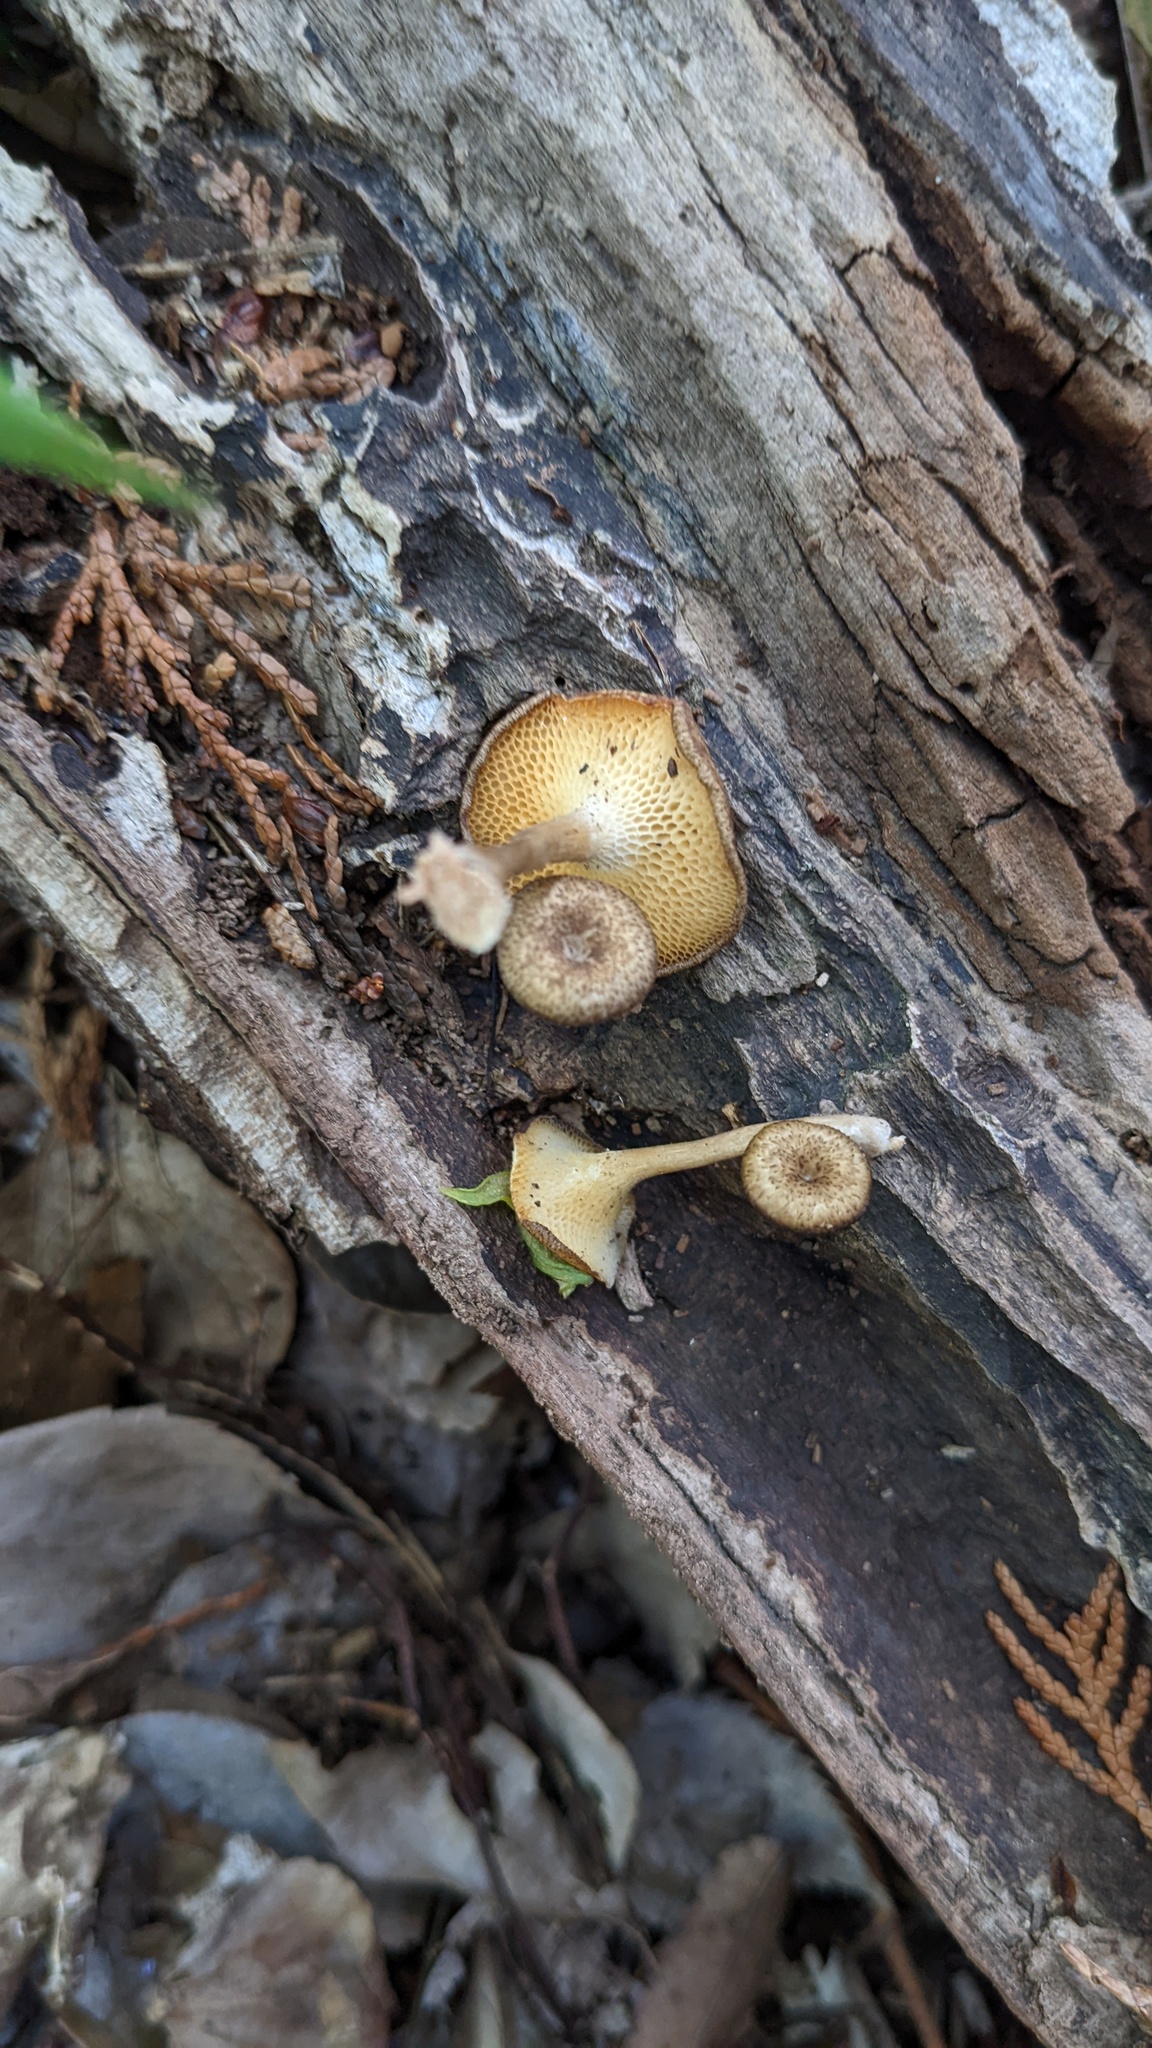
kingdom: Fungi
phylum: Basidiomycota
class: Agaricomycetes
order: Polyporales
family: Polyporaceae
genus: Lentinus
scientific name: Lentinus arcularius
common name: Spring polypore
